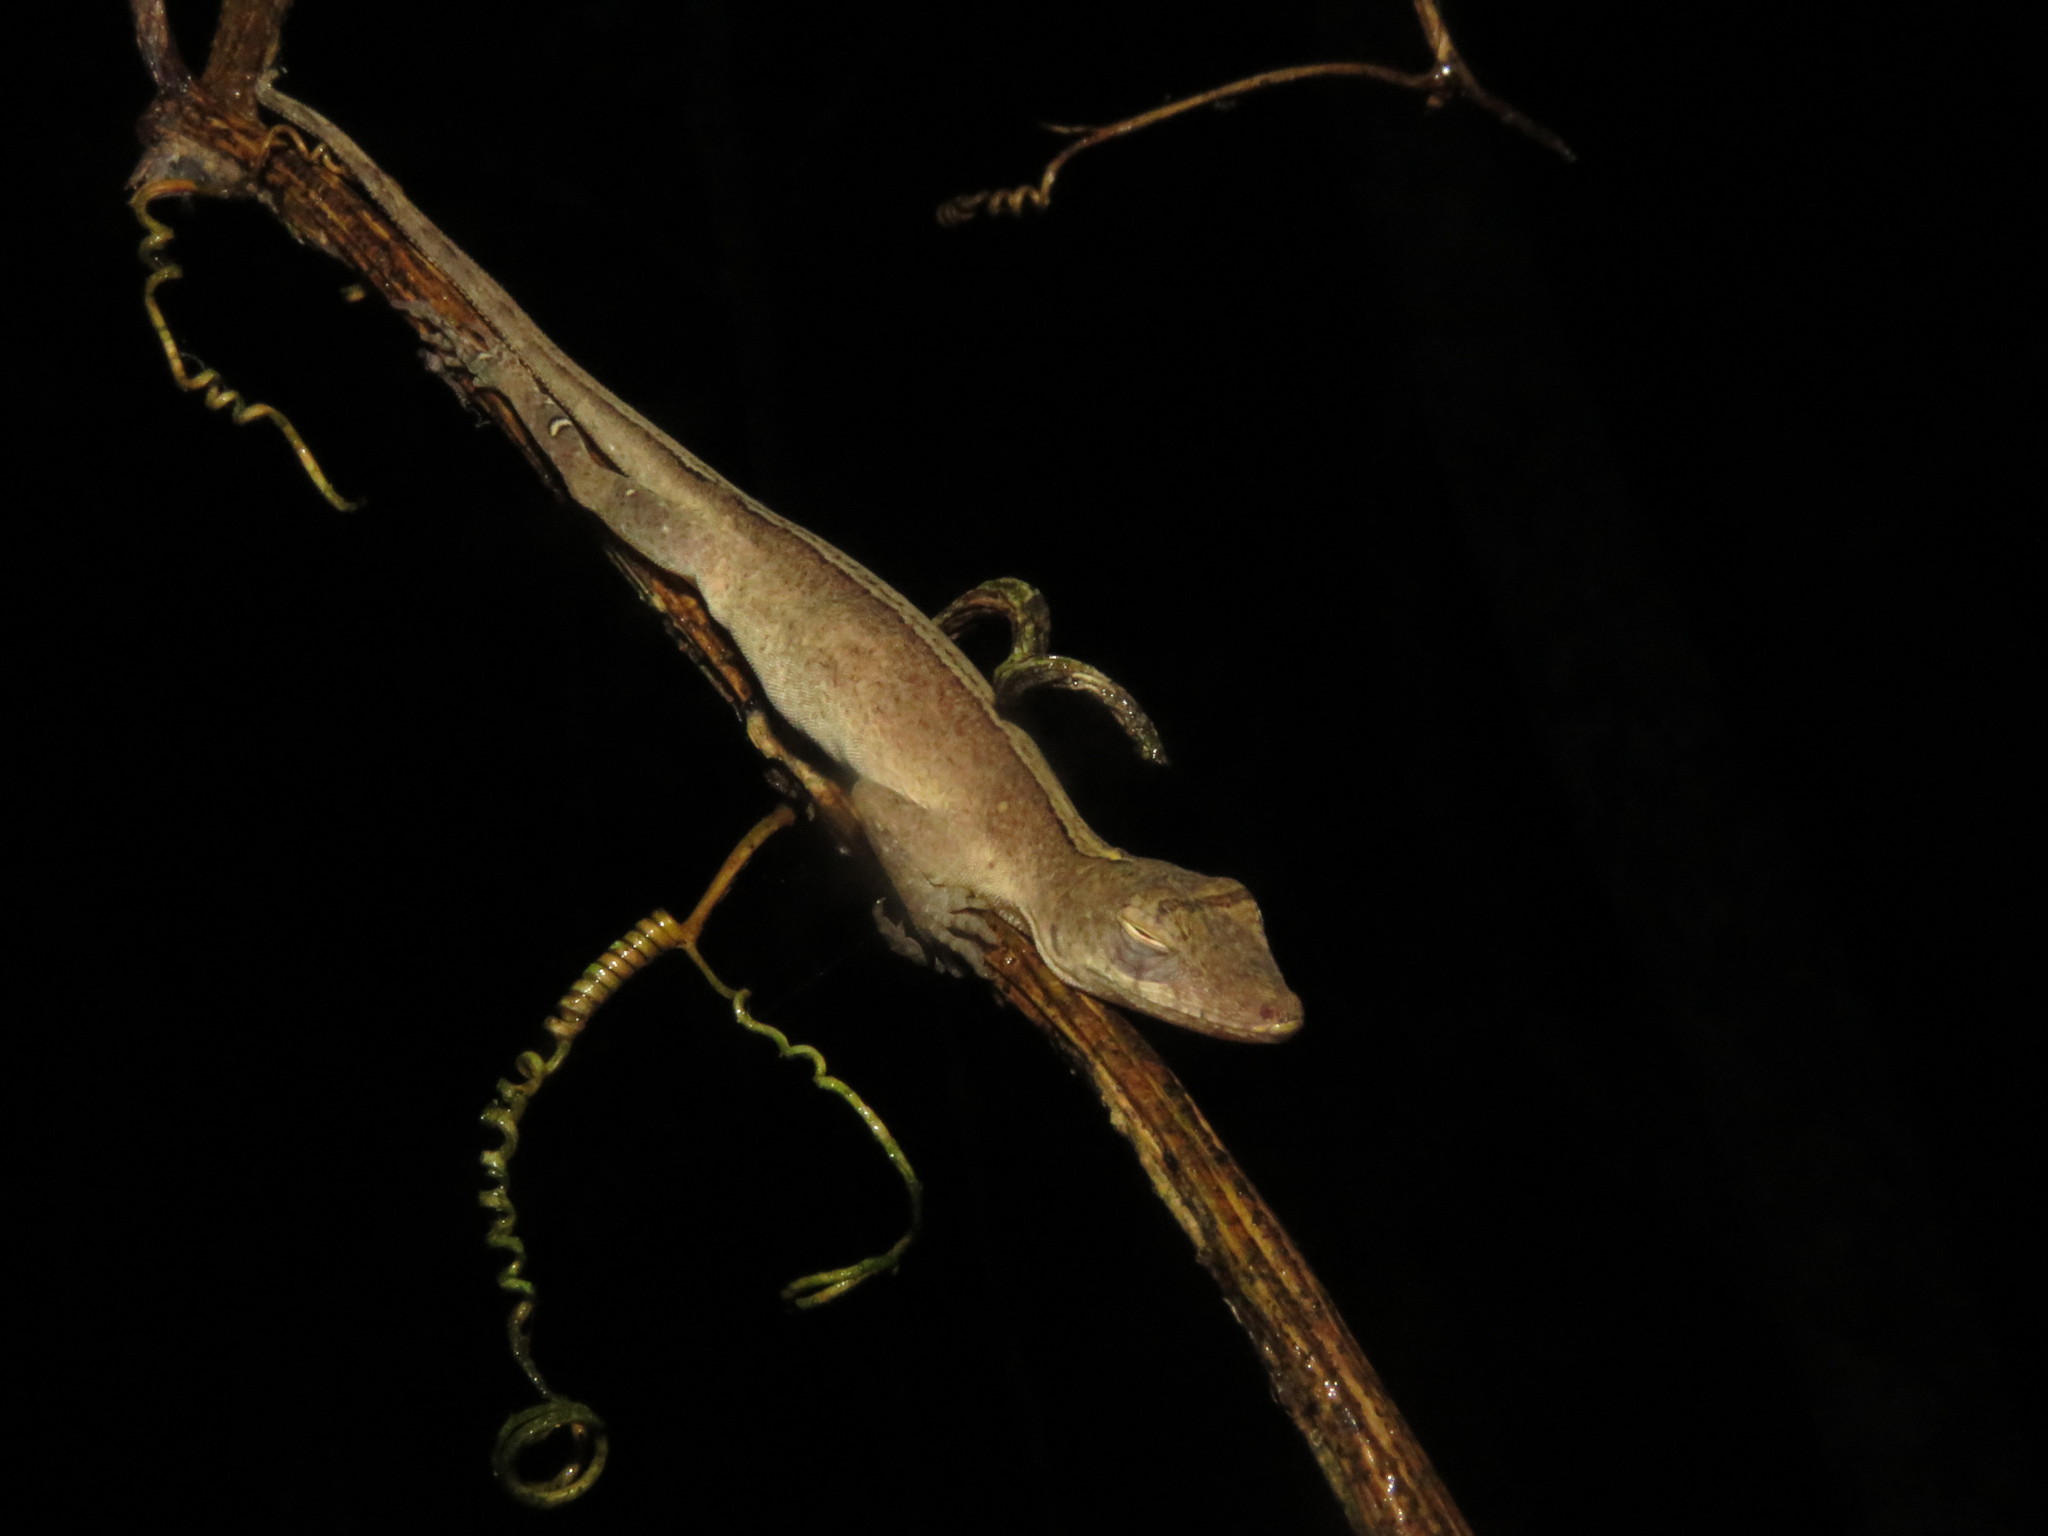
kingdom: Animalia
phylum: Chordata
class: Squamata
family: Dactyloidae
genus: Anolis
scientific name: Anolis fuscoauratus
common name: Brown-eared anole
